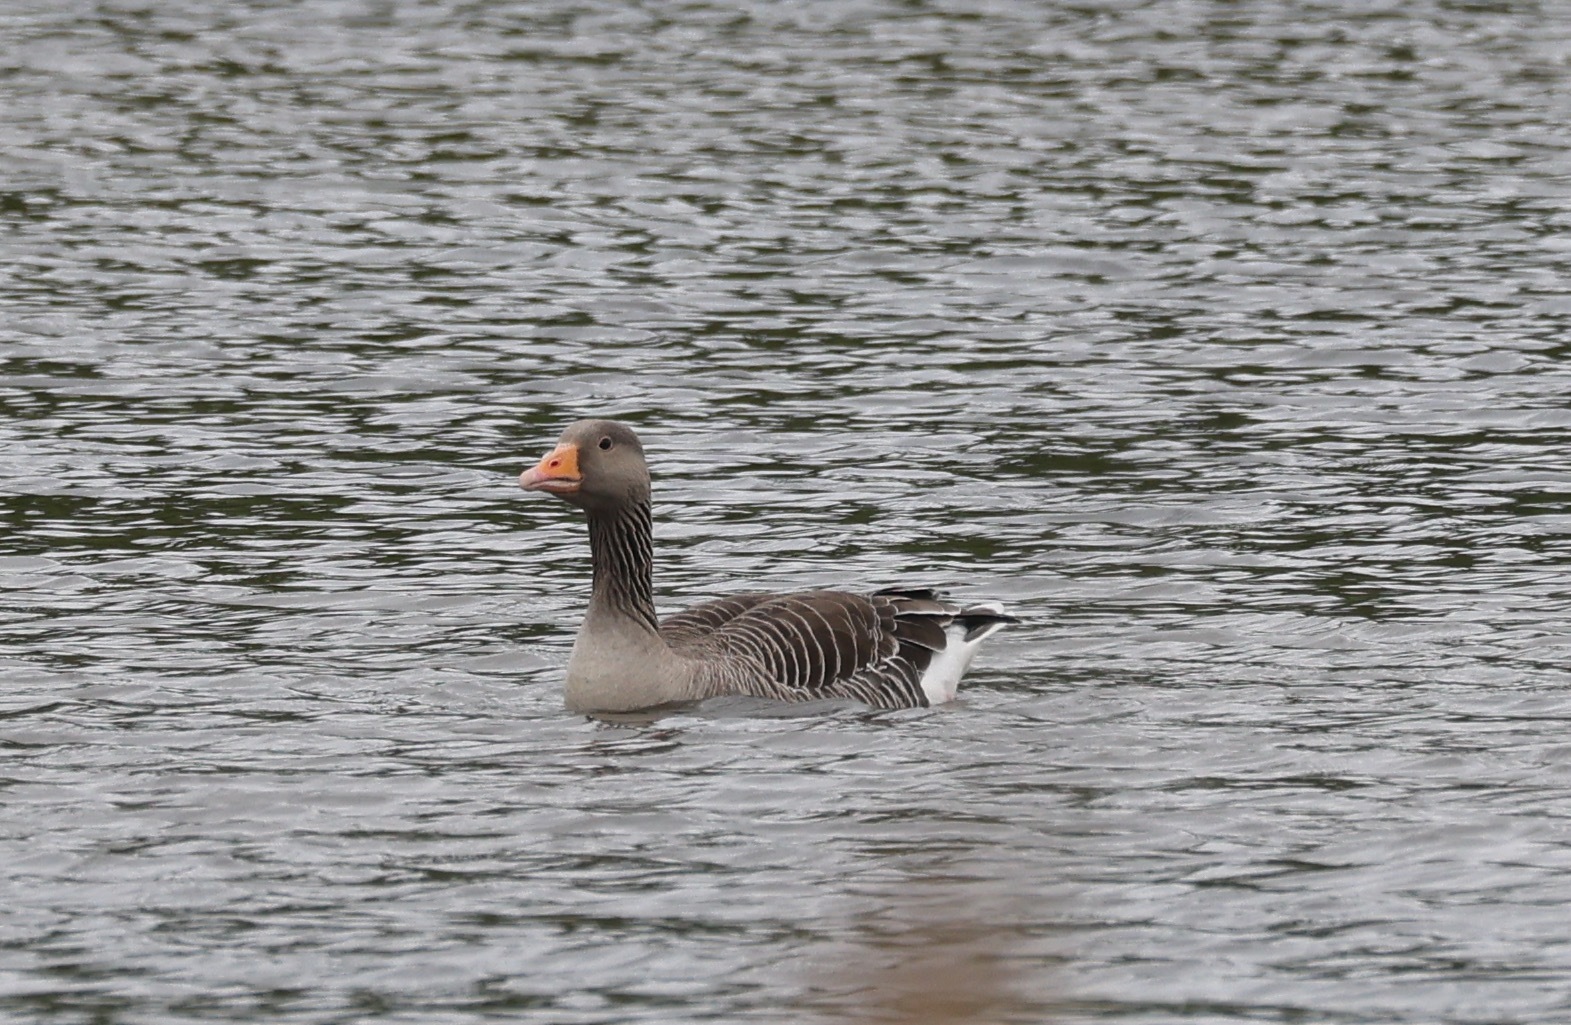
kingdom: Animalia
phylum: Chordata
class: Aves
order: Anseriformes
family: Anatidae
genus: Anser
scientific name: Anser anser
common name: Greylag goose
